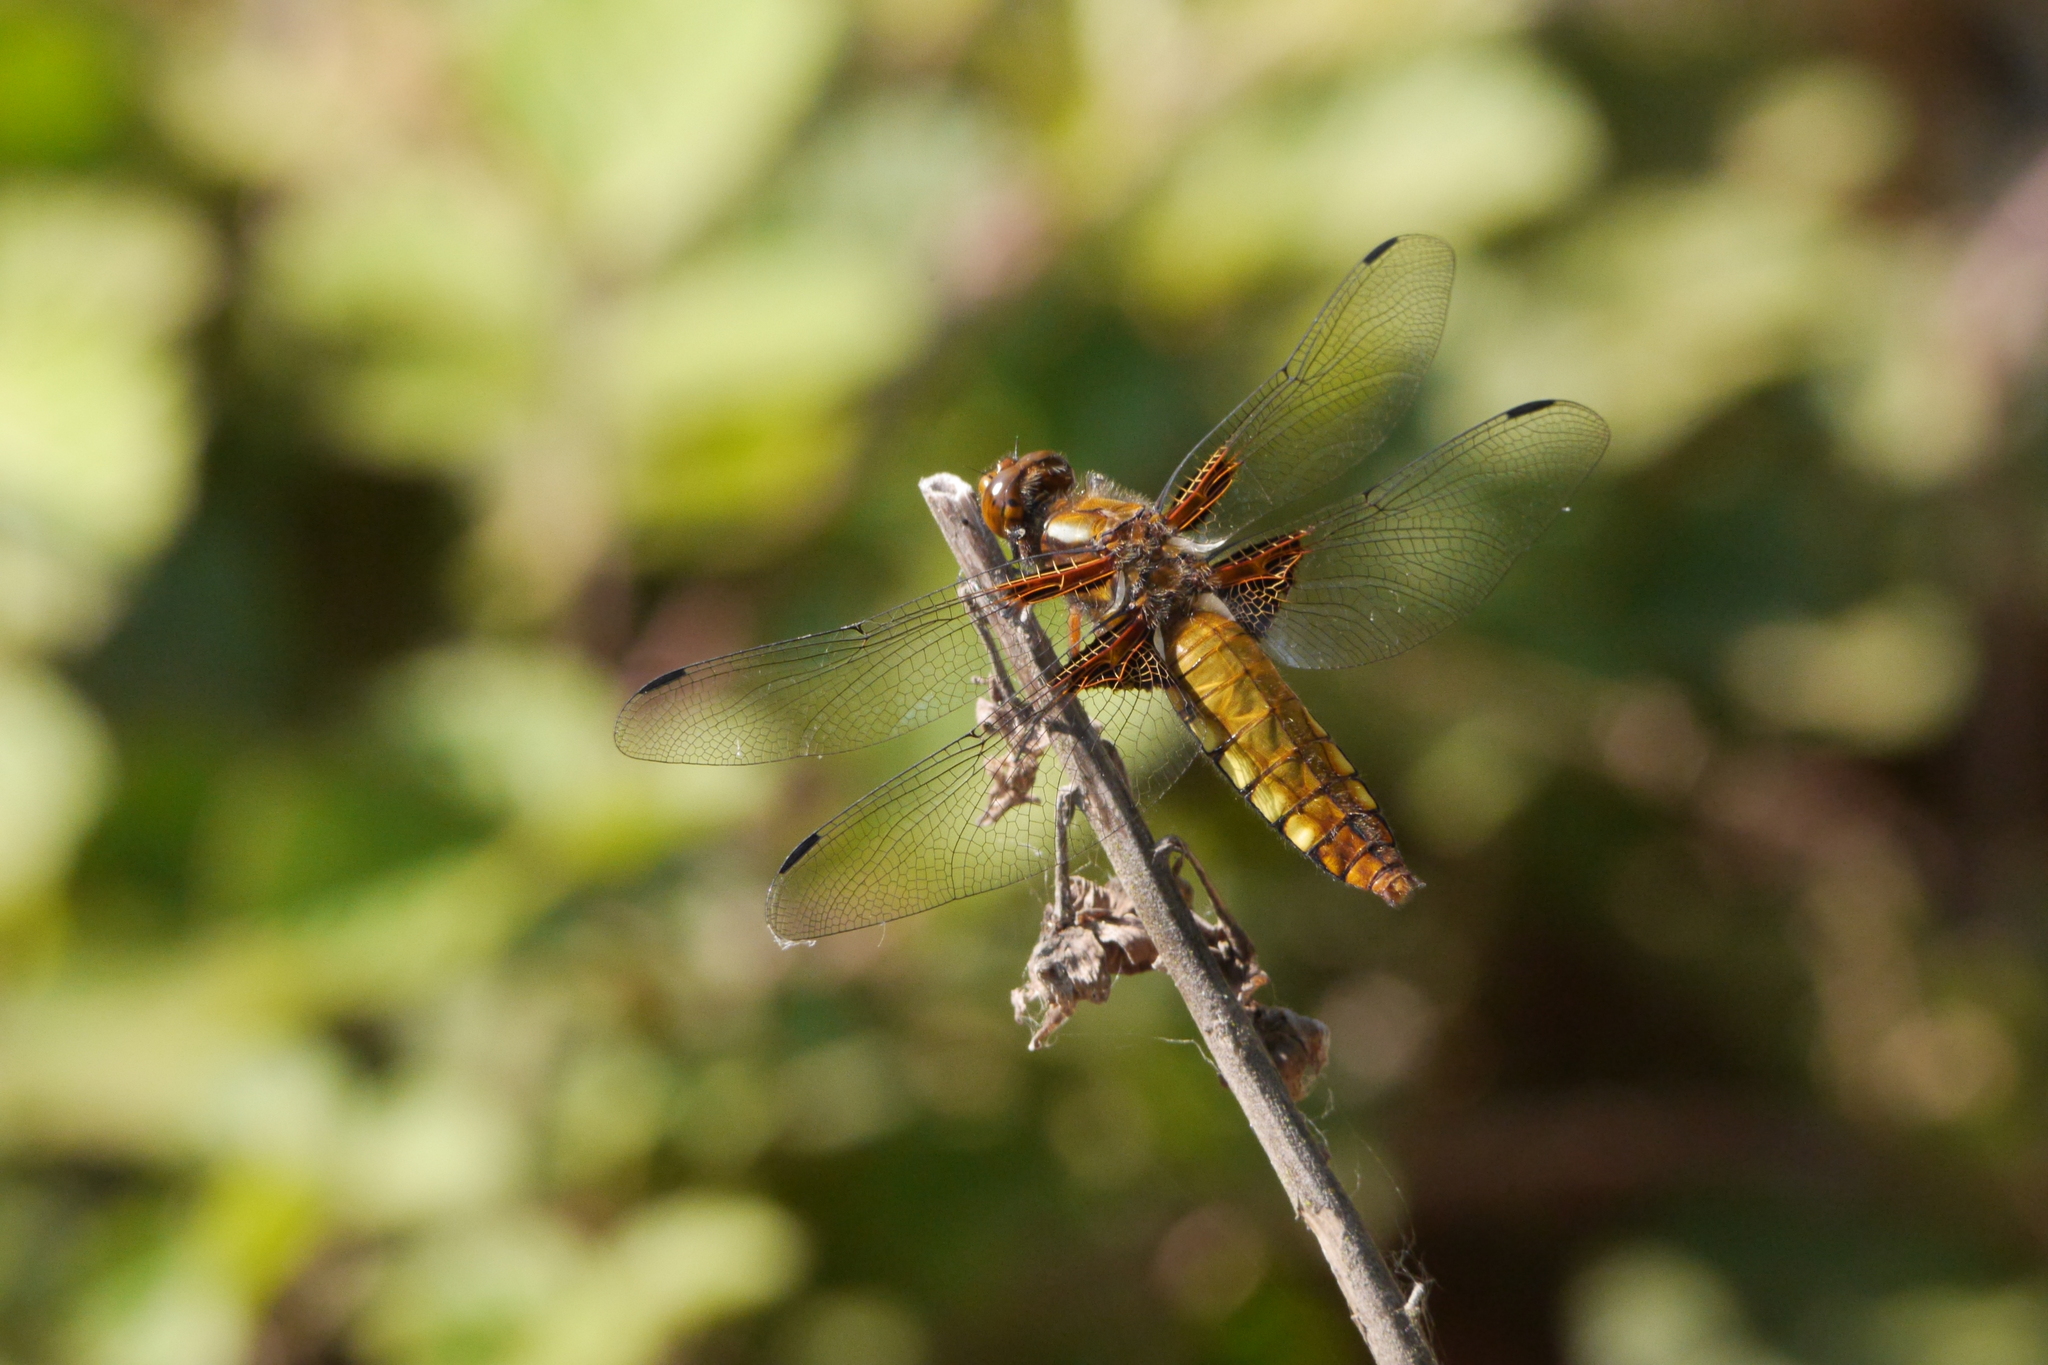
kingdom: Animalia
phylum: Arthropoda
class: Insecta
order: Odonata
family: Libellulidae
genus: Libellula
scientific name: Libellula depressa
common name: Broad-bodied chaser
